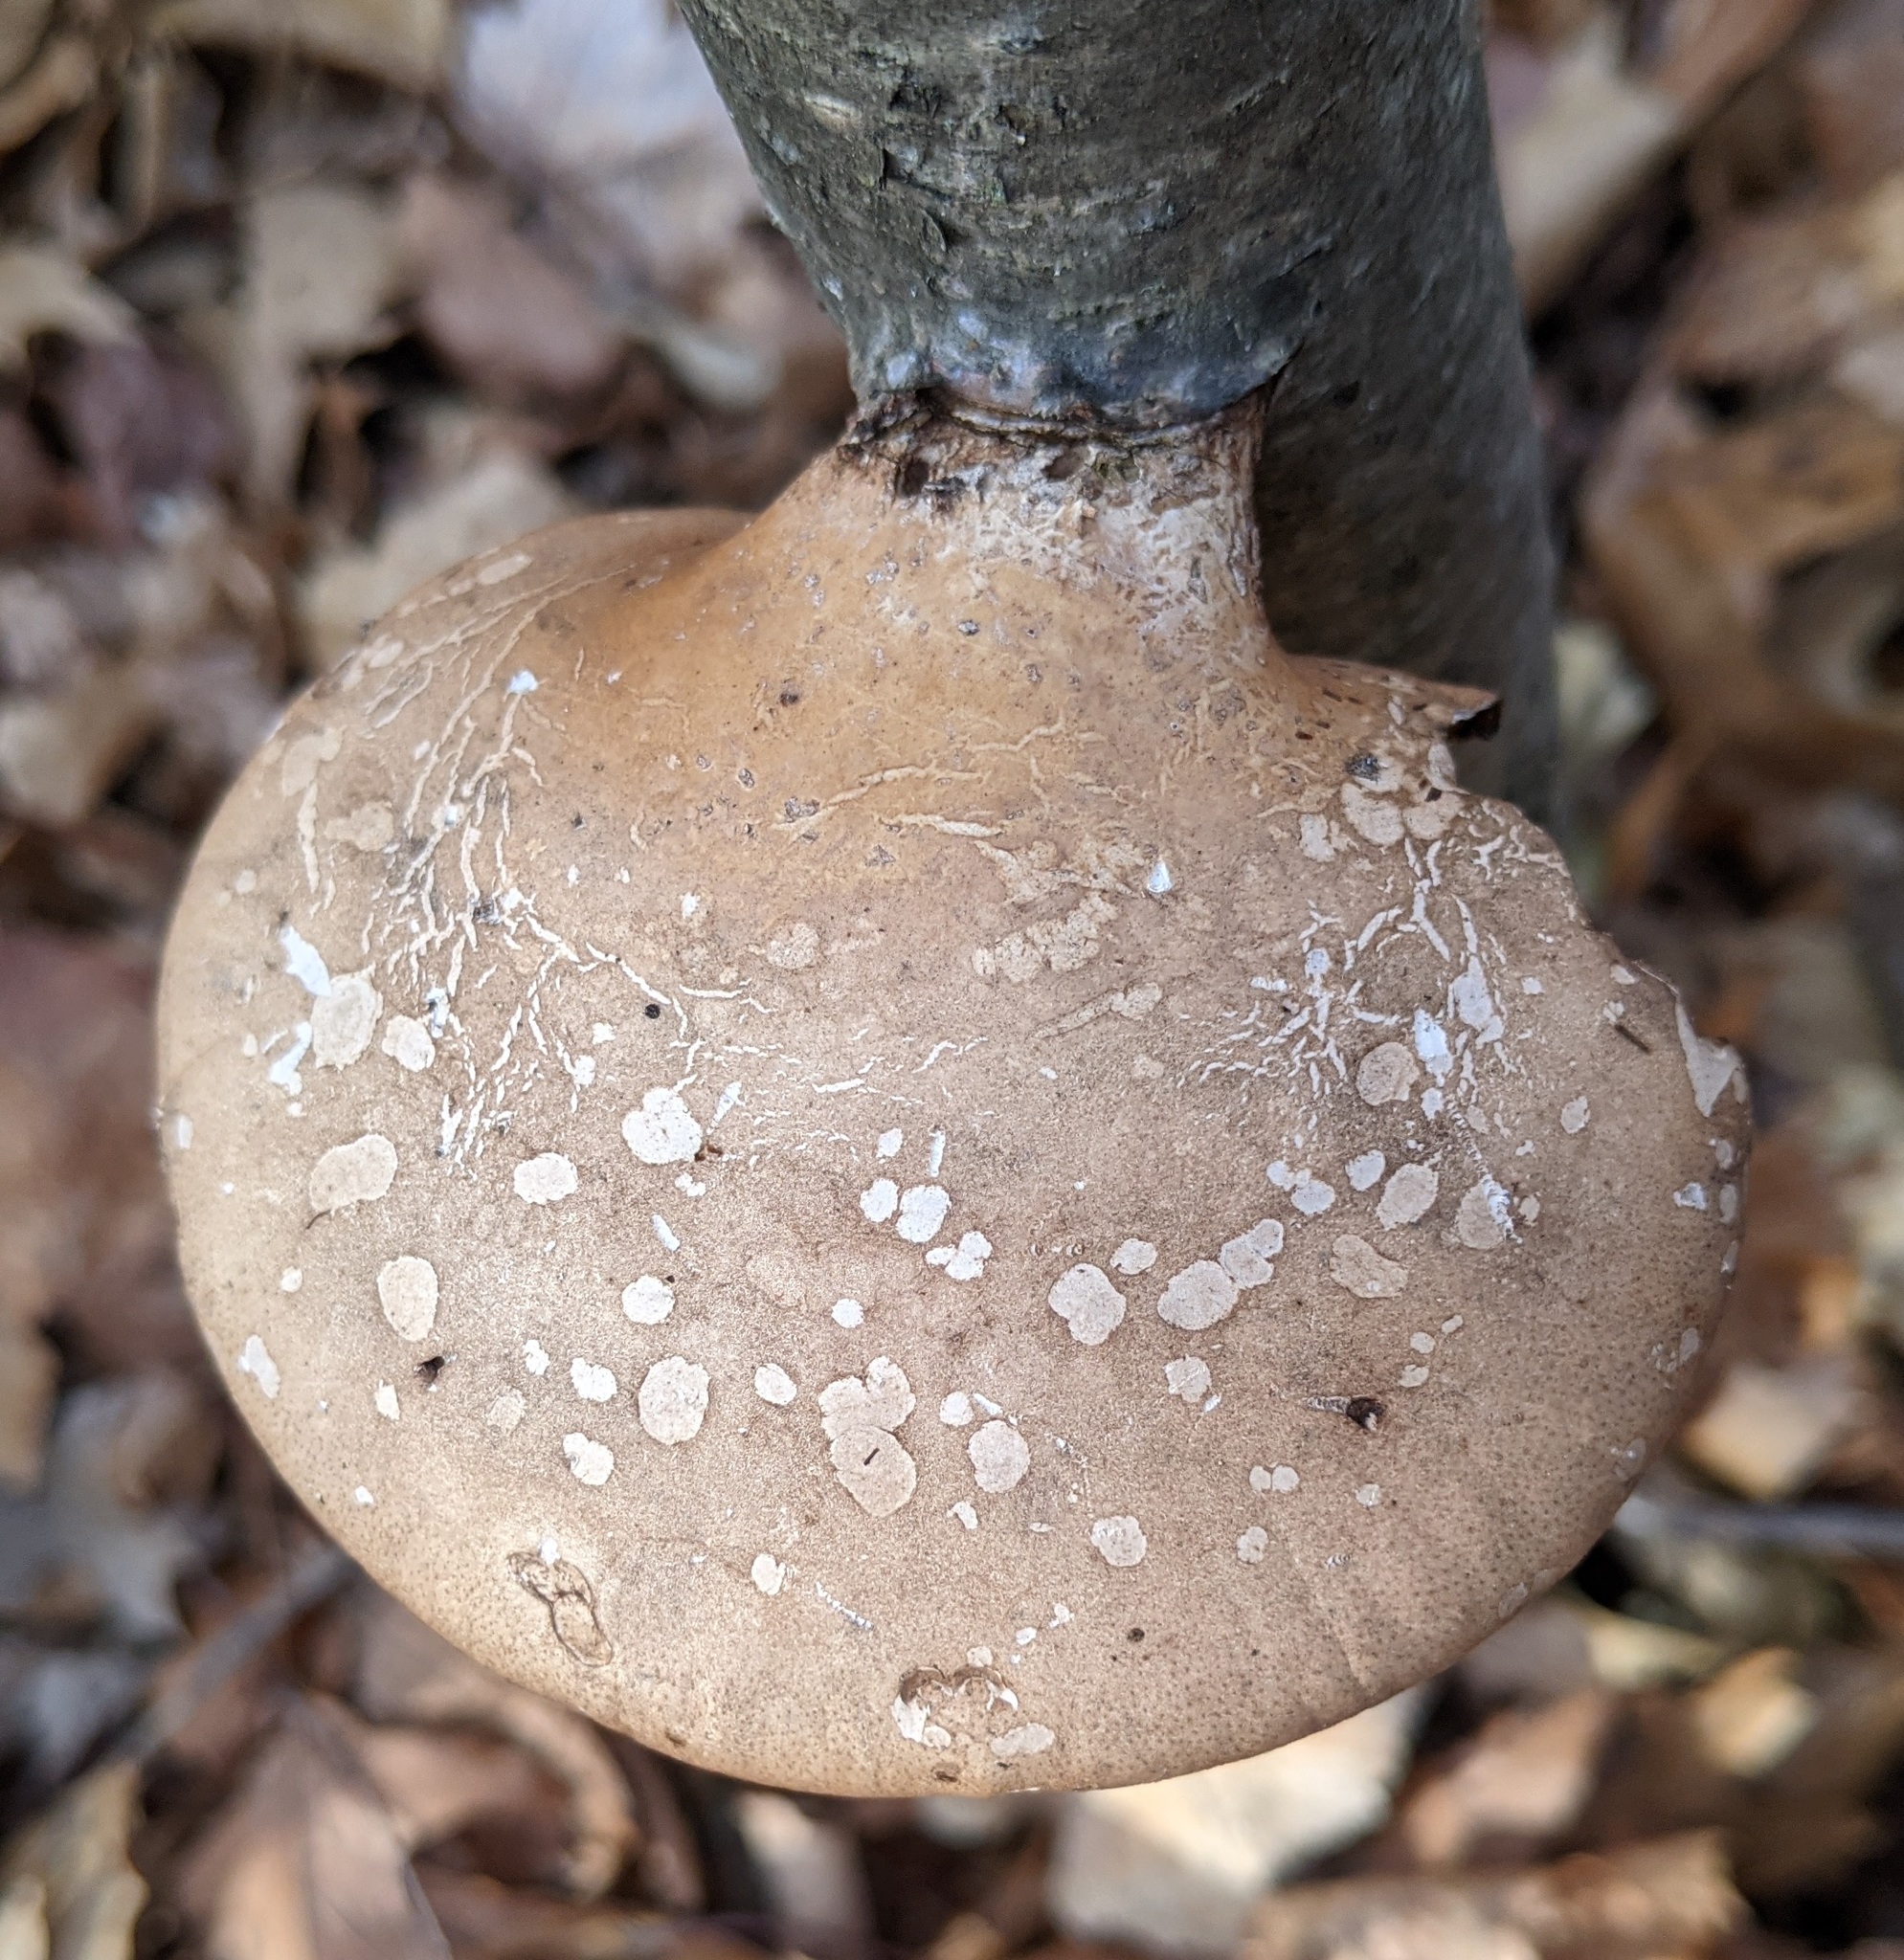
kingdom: Fungi
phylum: Basidiomycota
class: Agaricomycetes
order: Polyporales
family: Fomitopsidaceae
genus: Fomitopsis
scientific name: Fomitopsis betulina
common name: Birch polypore
